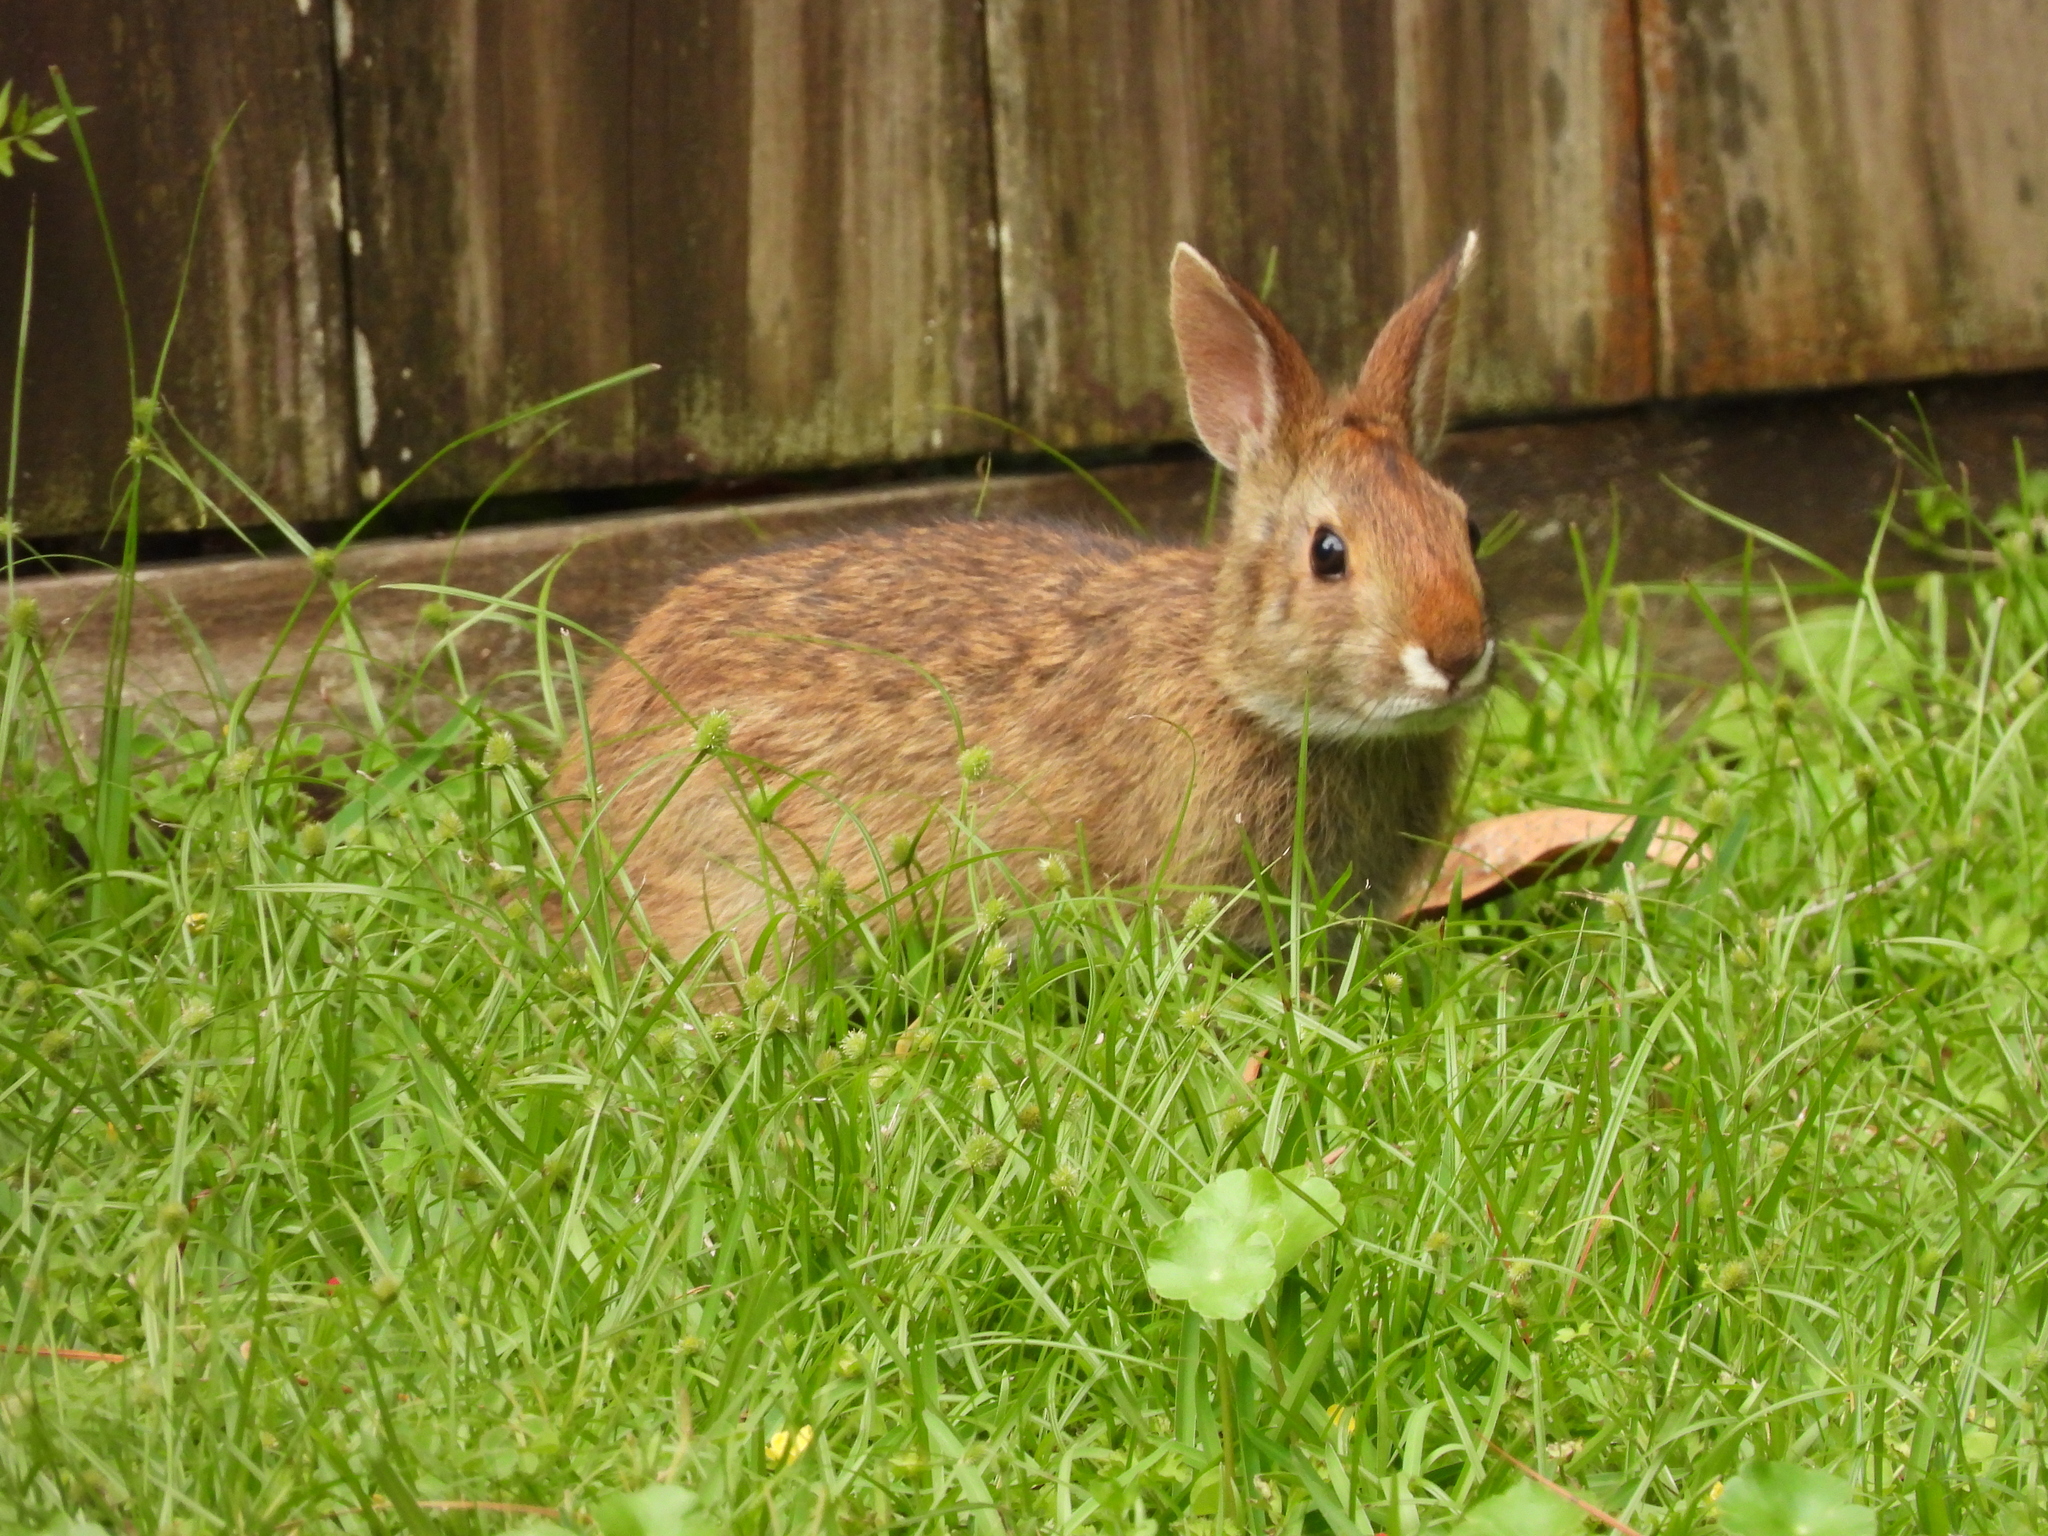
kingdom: Animalia
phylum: Chordata
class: Mammalia
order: Lagomorpha
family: Leporidae
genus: Sylvilagus
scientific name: Sylvilagus aquaticus
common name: Swamp rabbit
